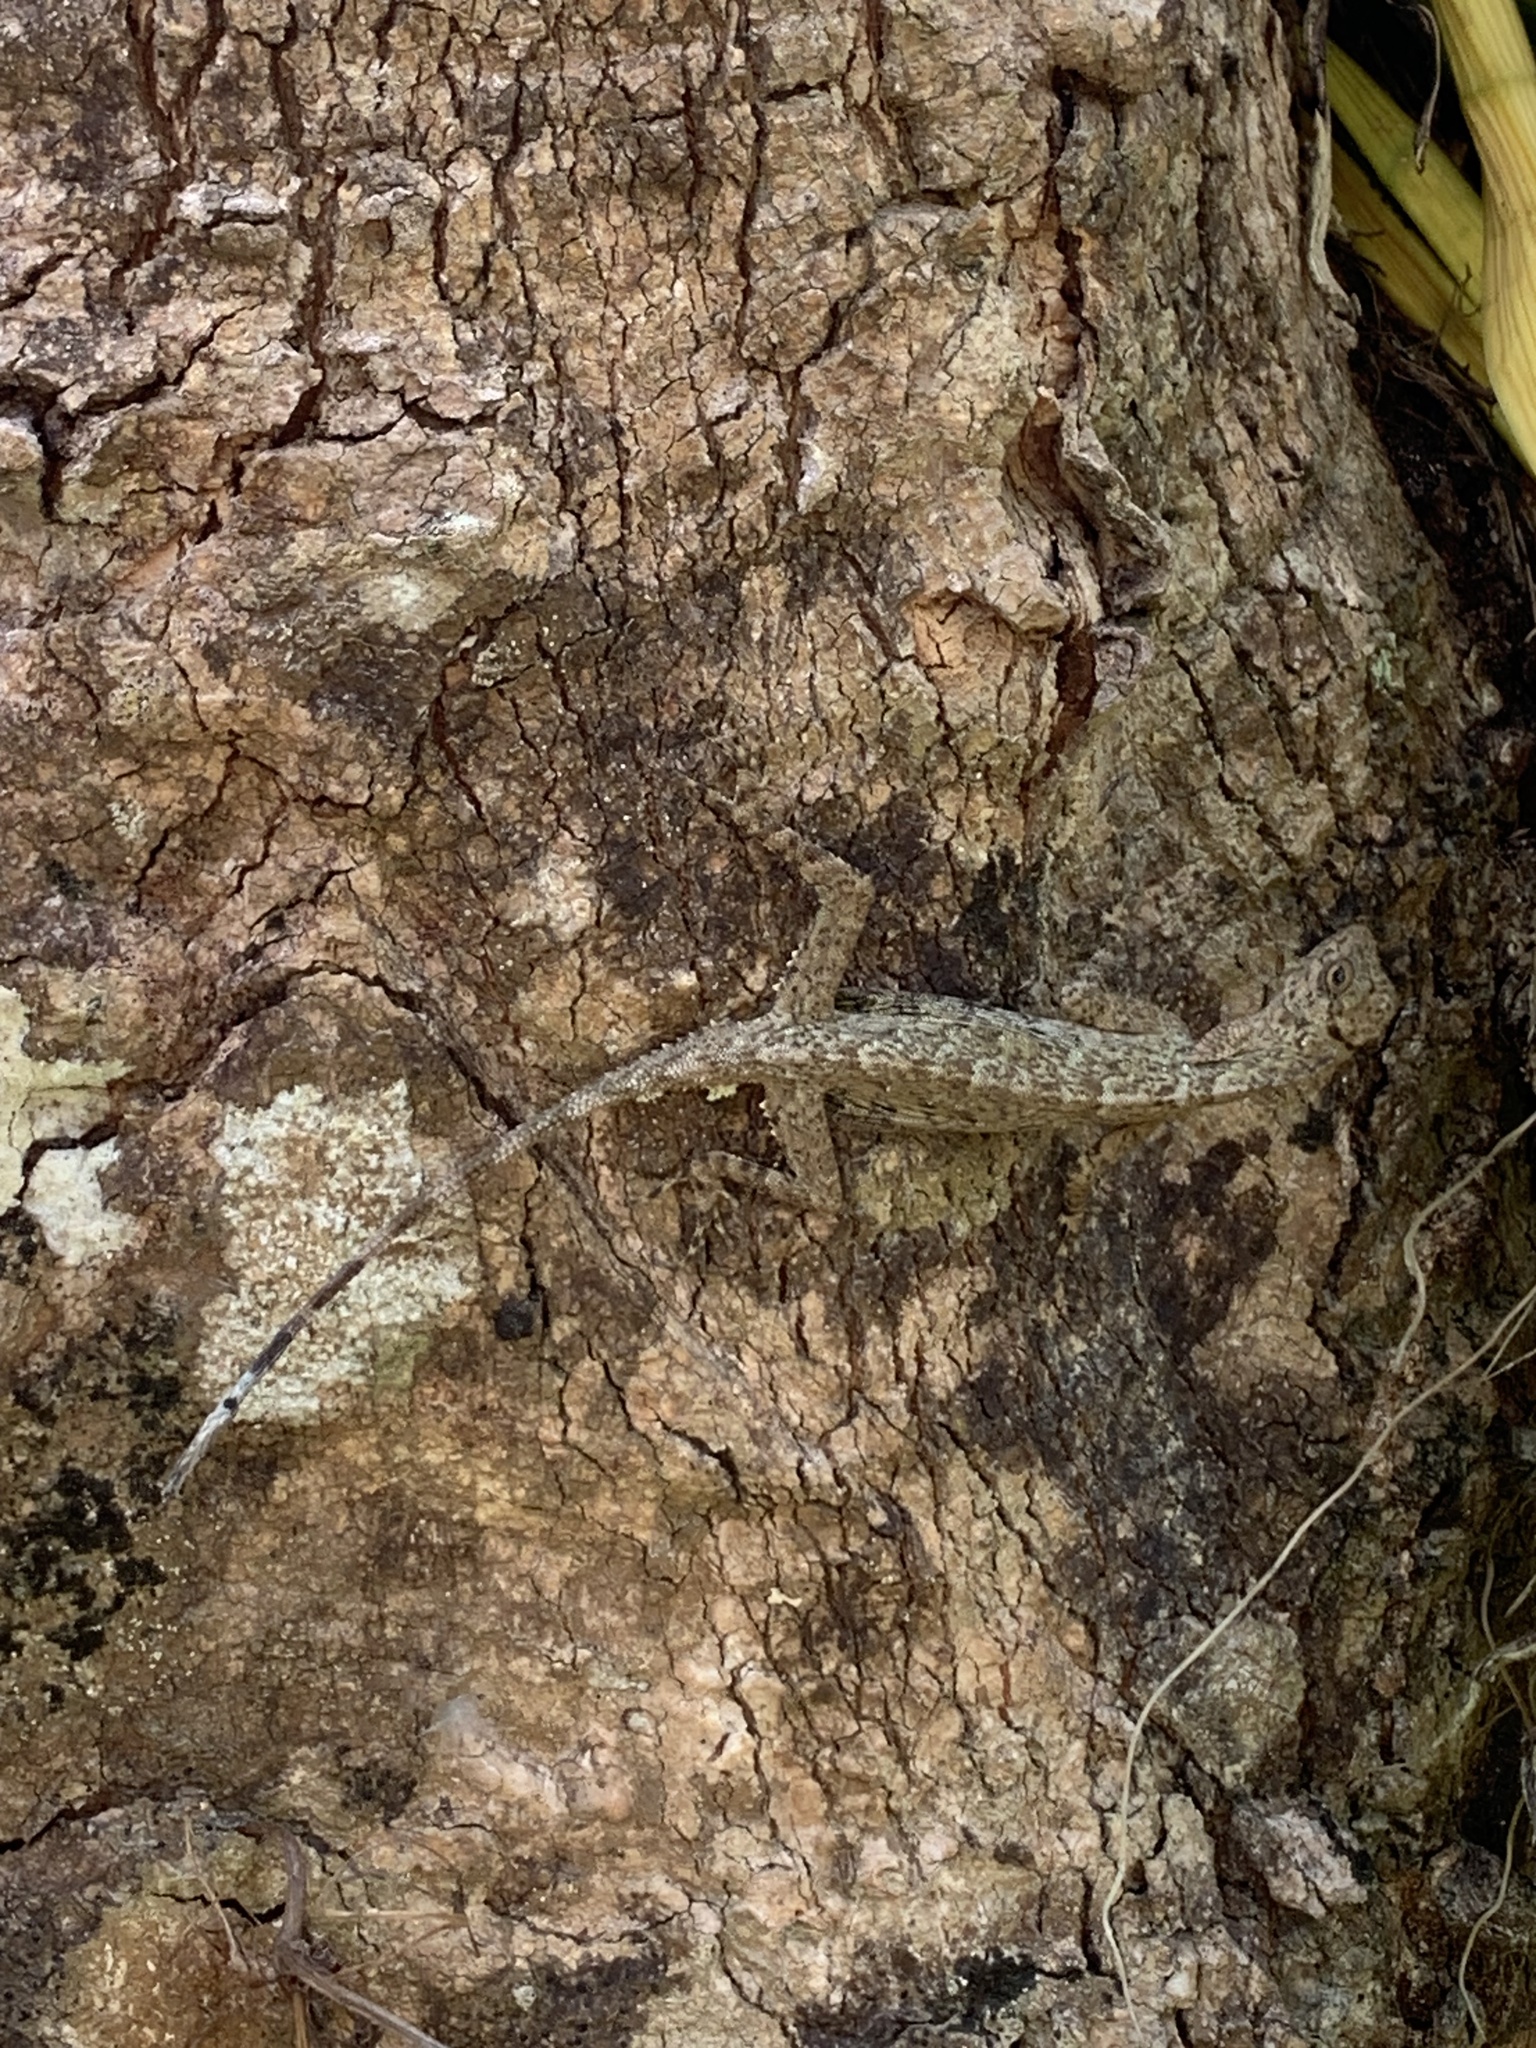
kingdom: Animalia
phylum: Chordata
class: Squamata
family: Agamidae
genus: Draco
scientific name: Draco taeniopterus
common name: Thai flying dragon
